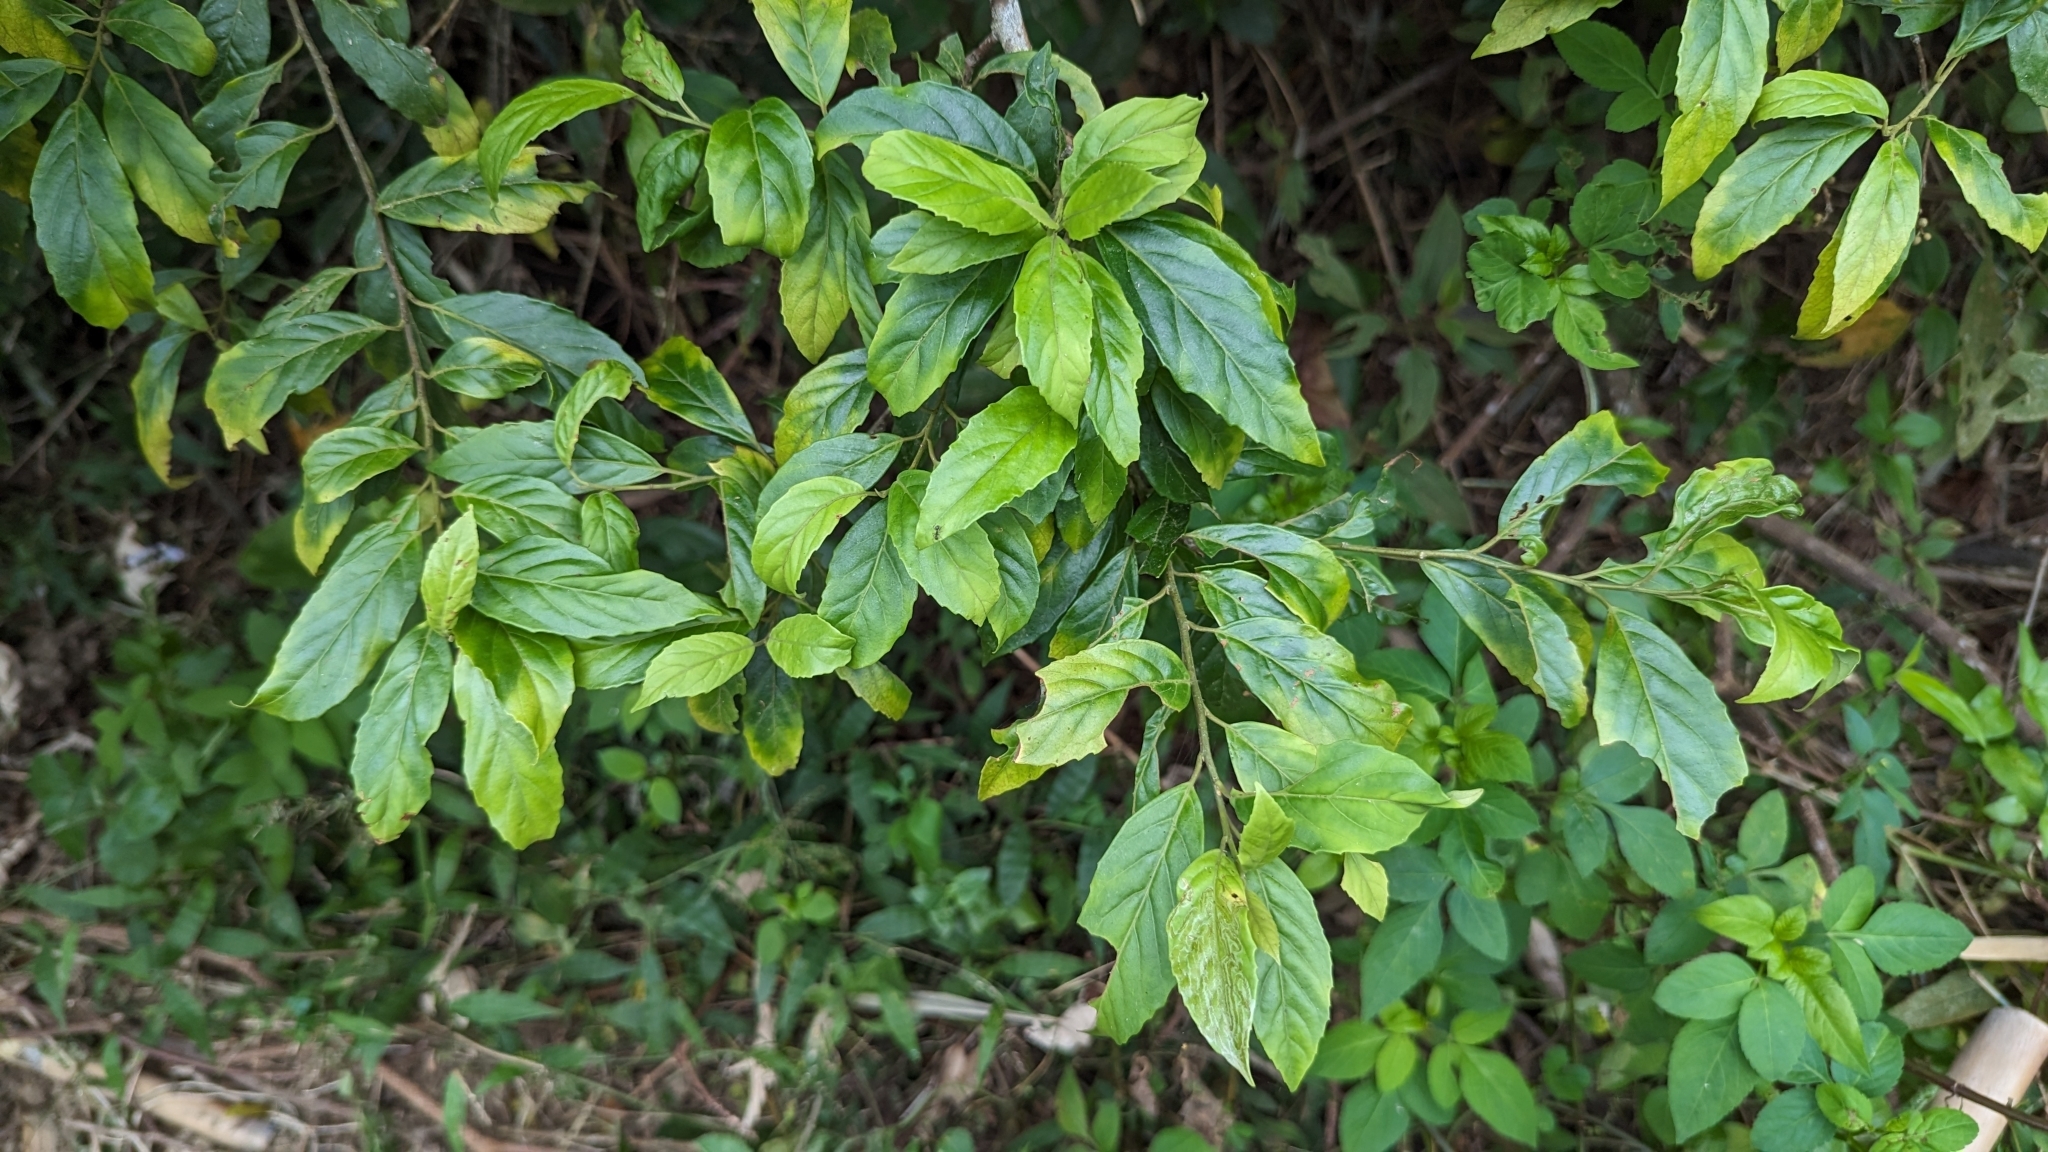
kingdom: Plantae
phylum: Tracheophyta
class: Magnoliopsida
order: Ericales
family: Primulaceae
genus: Maesa
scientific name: Maesa perlaria
